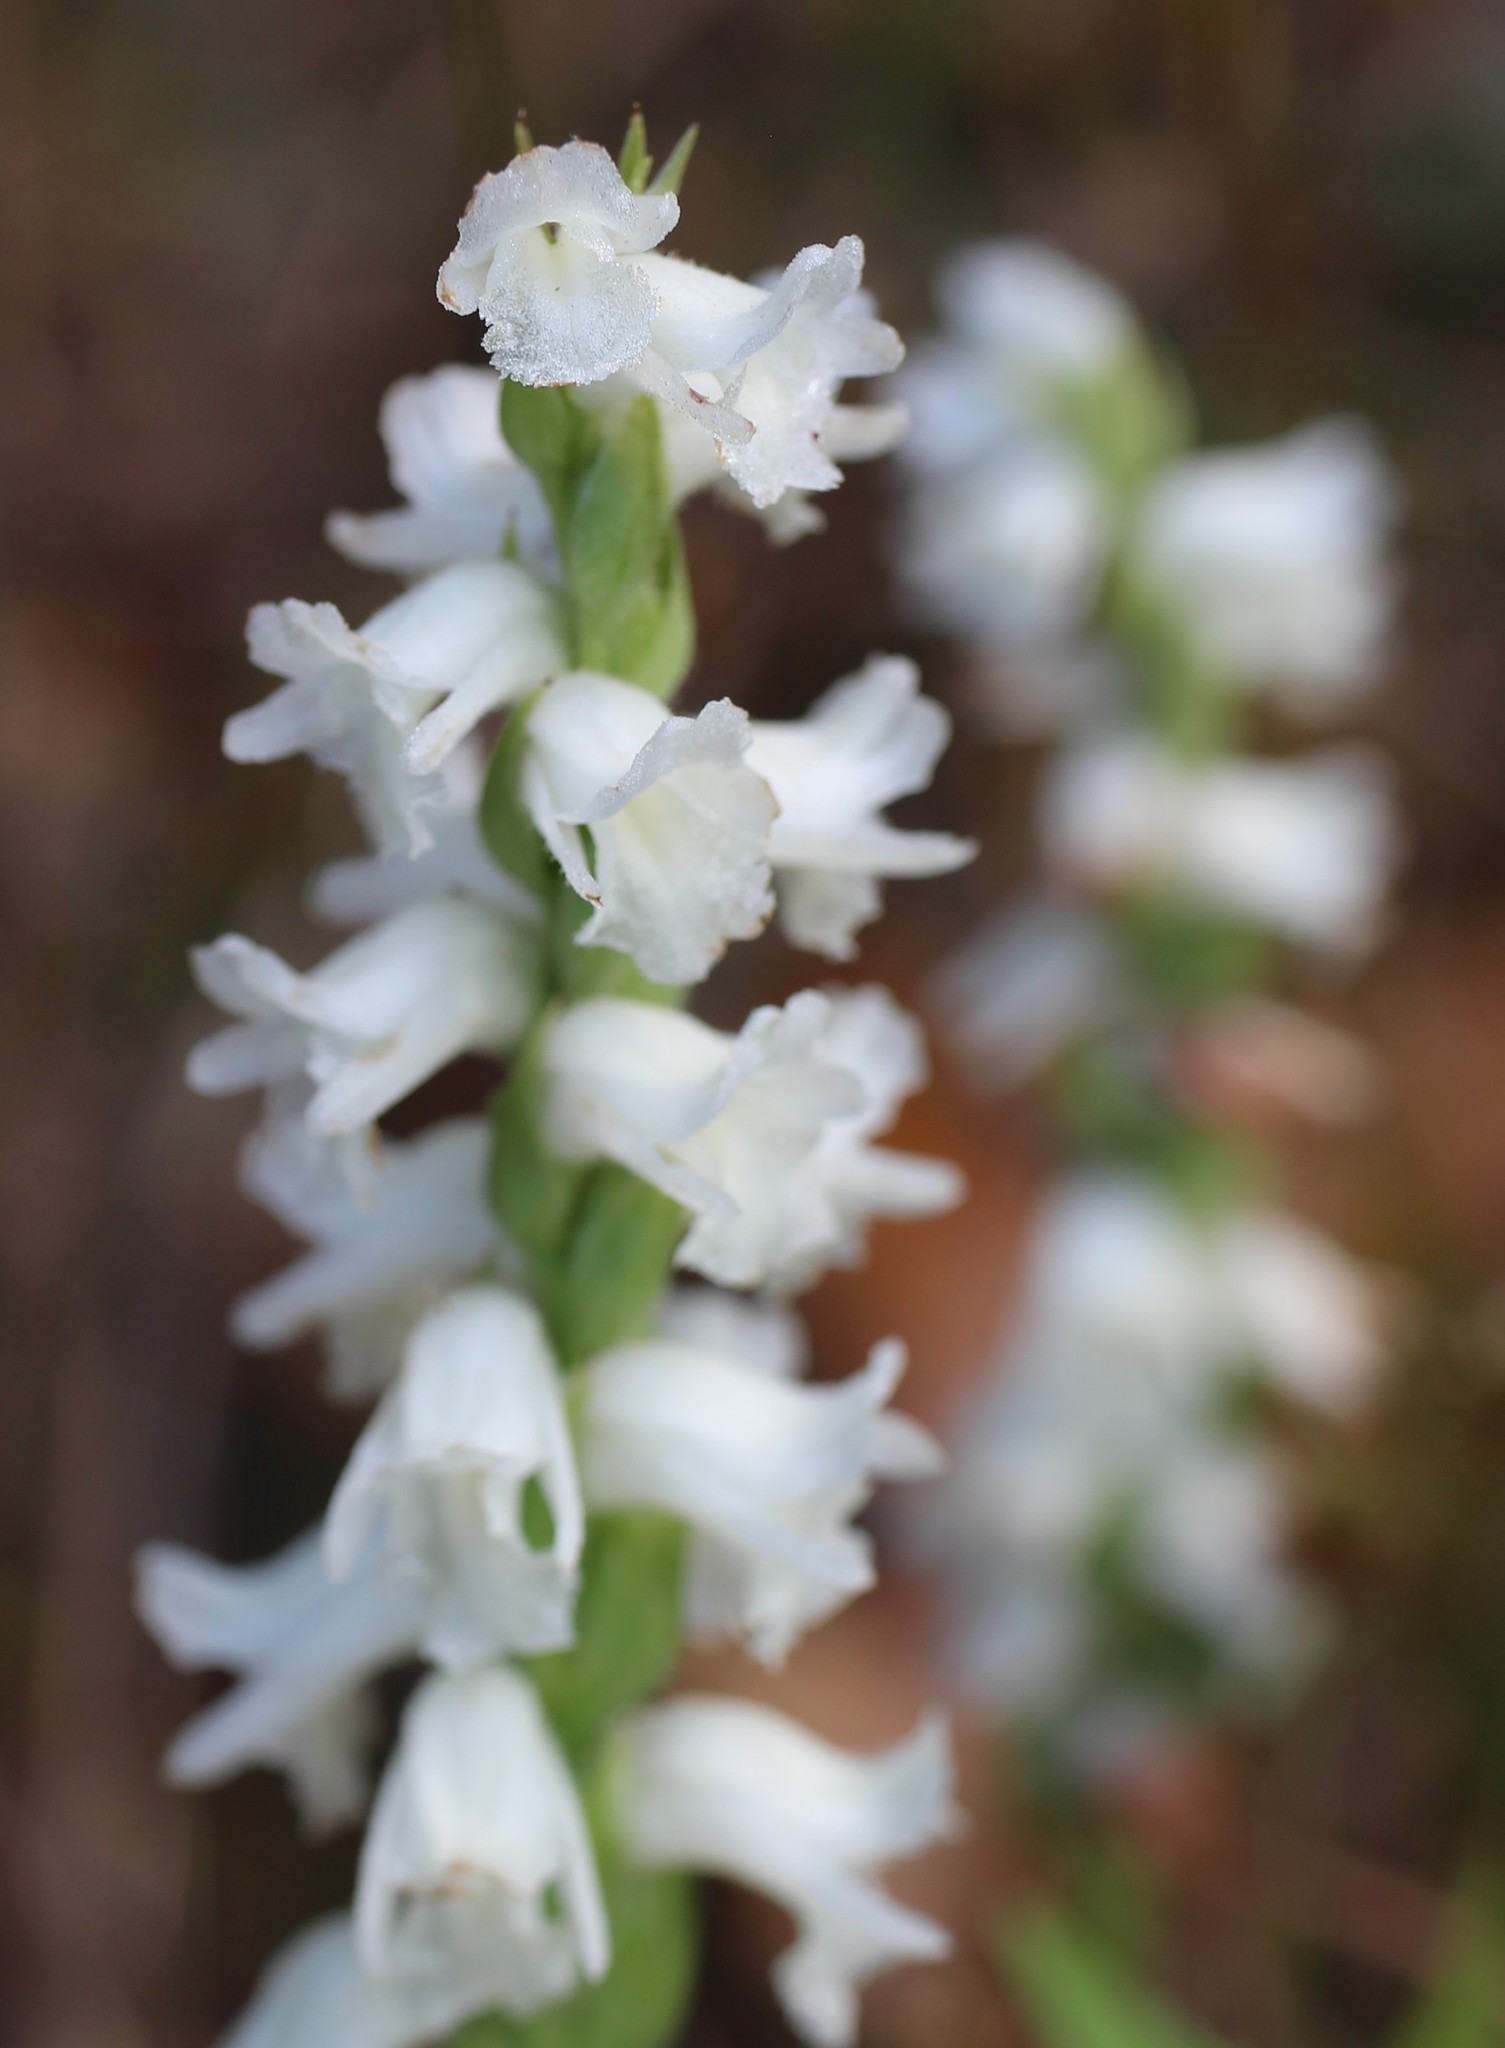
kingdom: Plantae
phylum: Tracheophyta
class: Liliopsida
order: Asparagales
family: Orchidaceae
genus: Spiranthes
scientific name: Spiranthes arcisepala
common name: Appalachian ladies'-tresses
